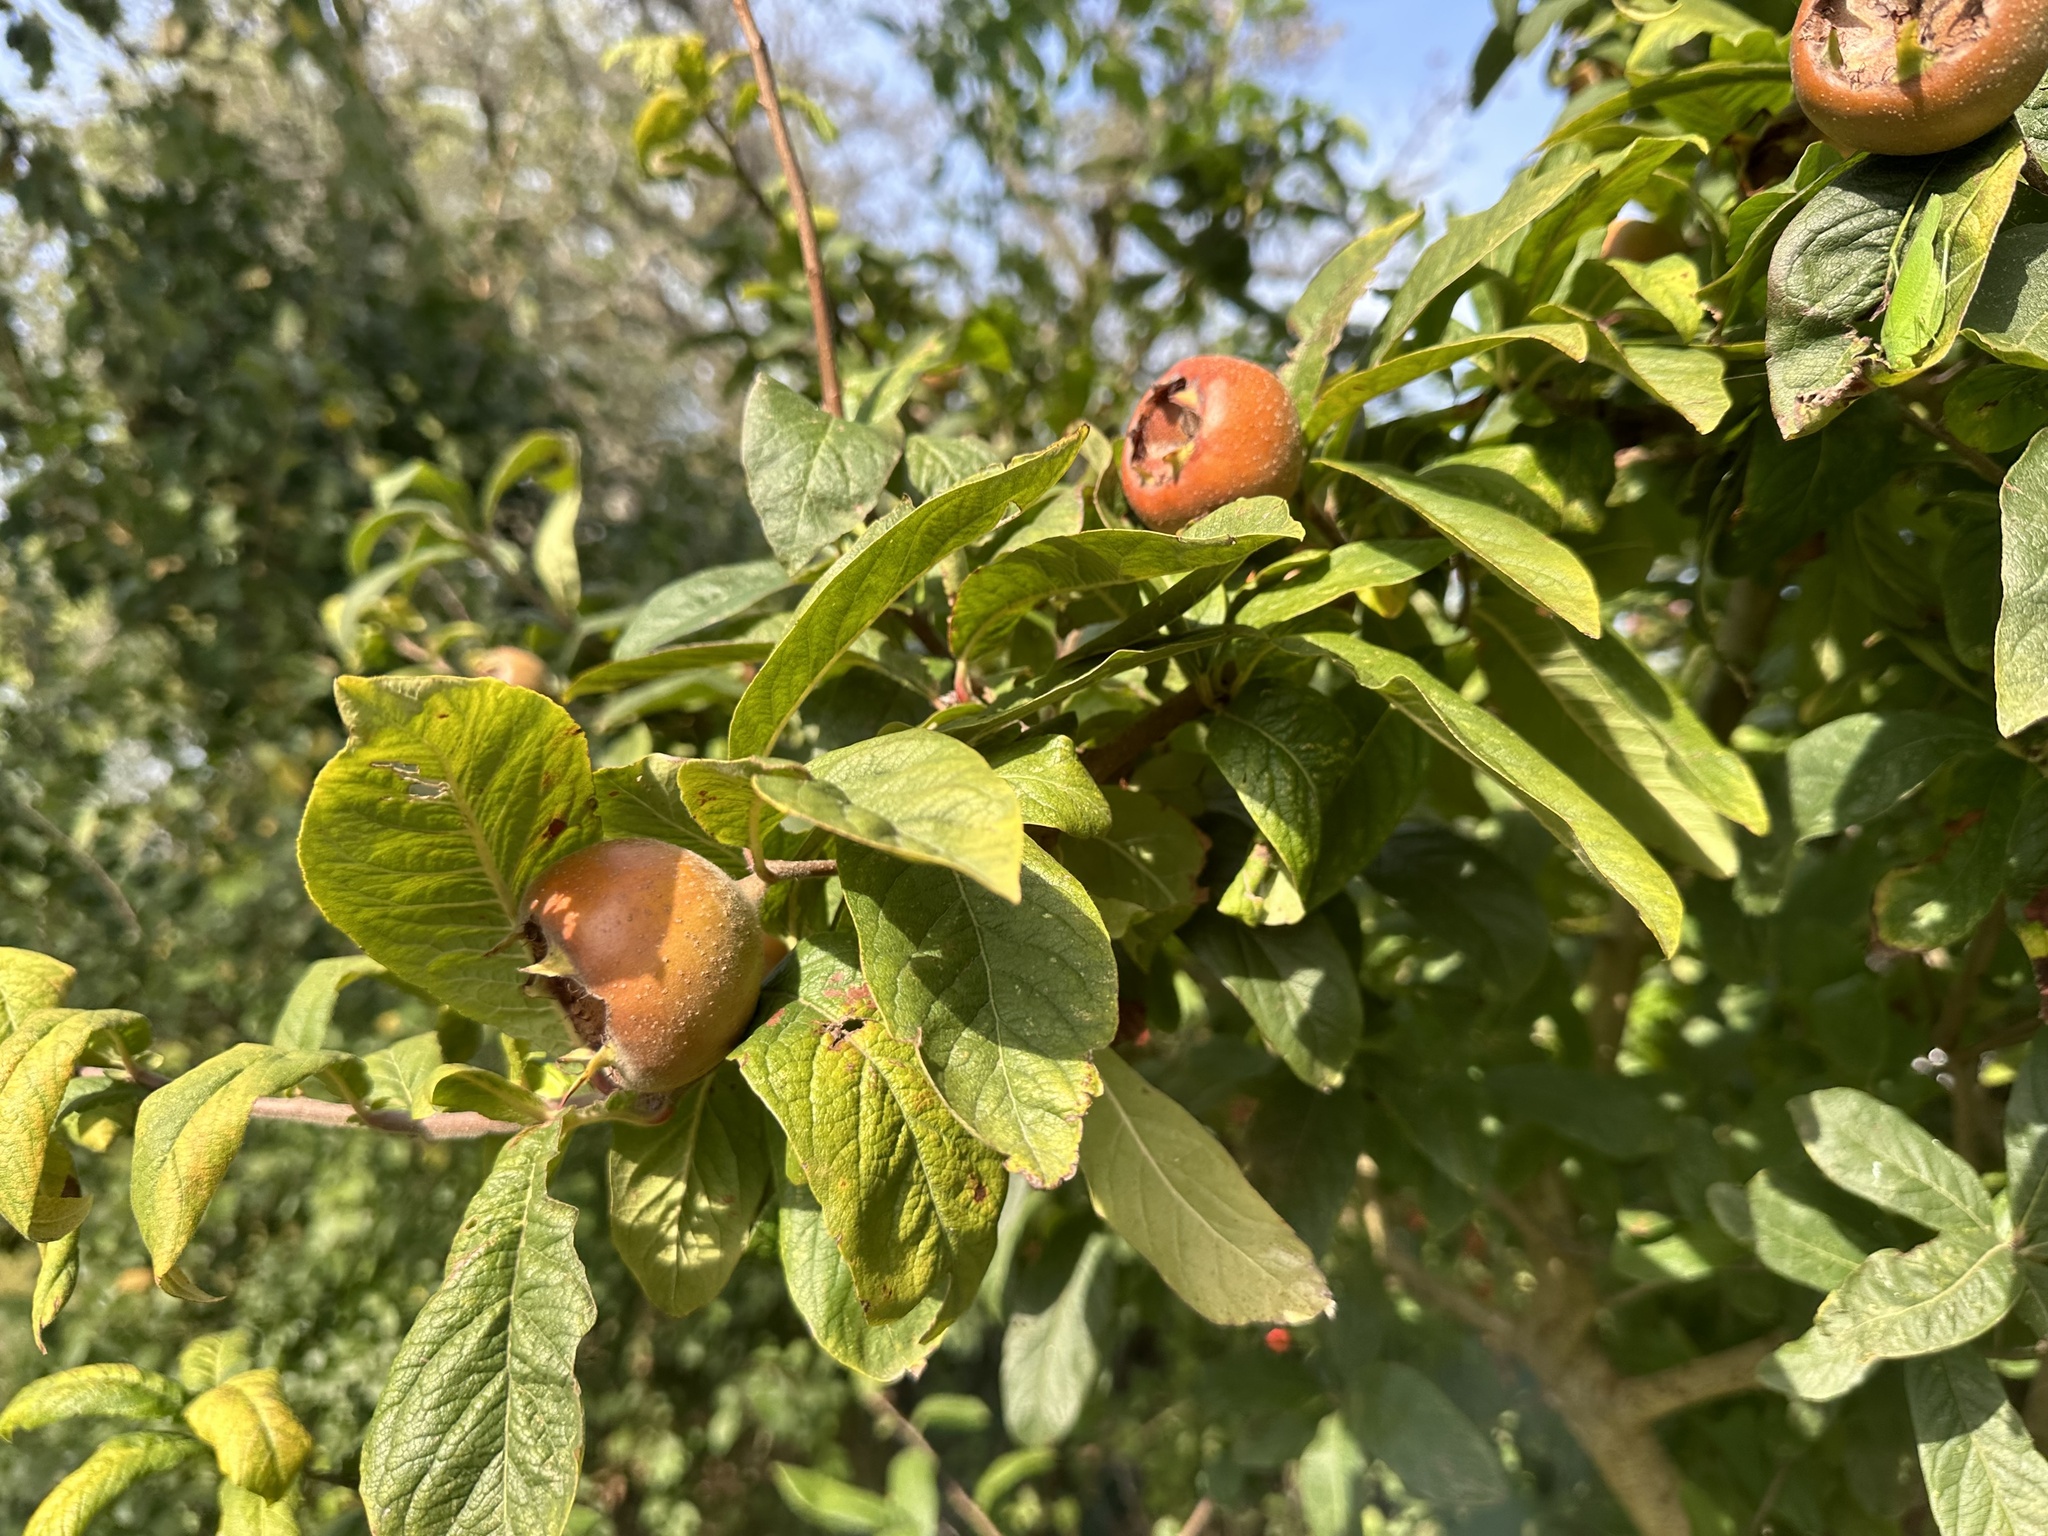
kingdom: Plantae
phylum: Tracheophyta
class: Magnoliopsida
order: Rosales
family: Rosaceae
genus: Mespilus
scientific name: Mespilus germanica
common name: Medlar
